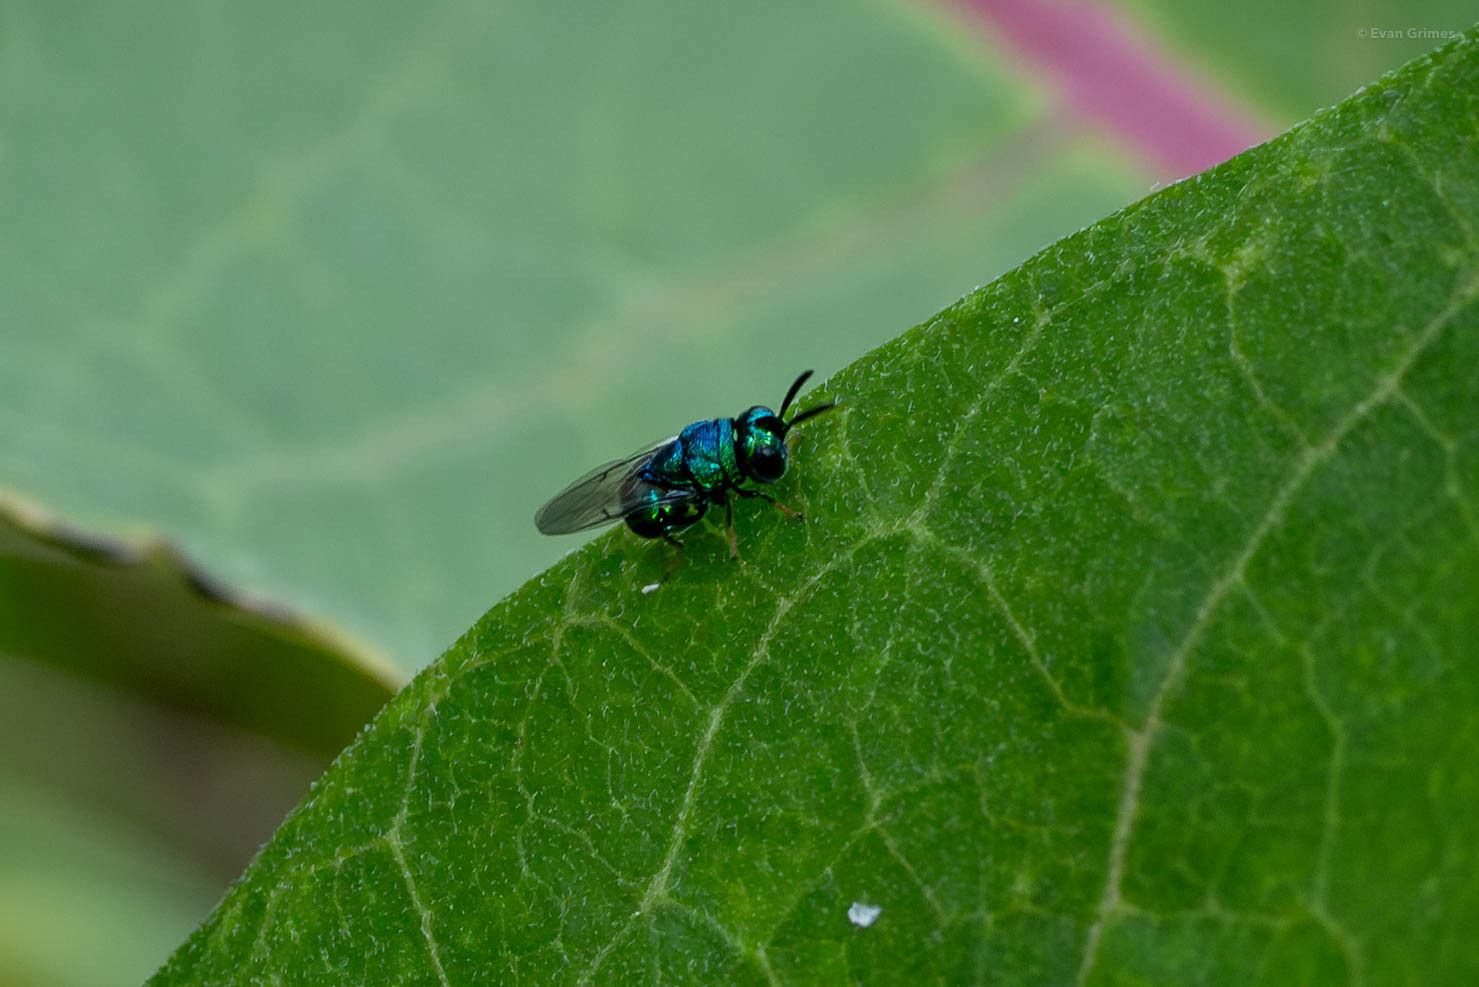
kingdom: Animalia
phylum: Arthropoda
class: Insecta
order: Hymenoptera
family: Perilampidae
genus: Euperilampus
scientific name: Euperilampus triangularis
